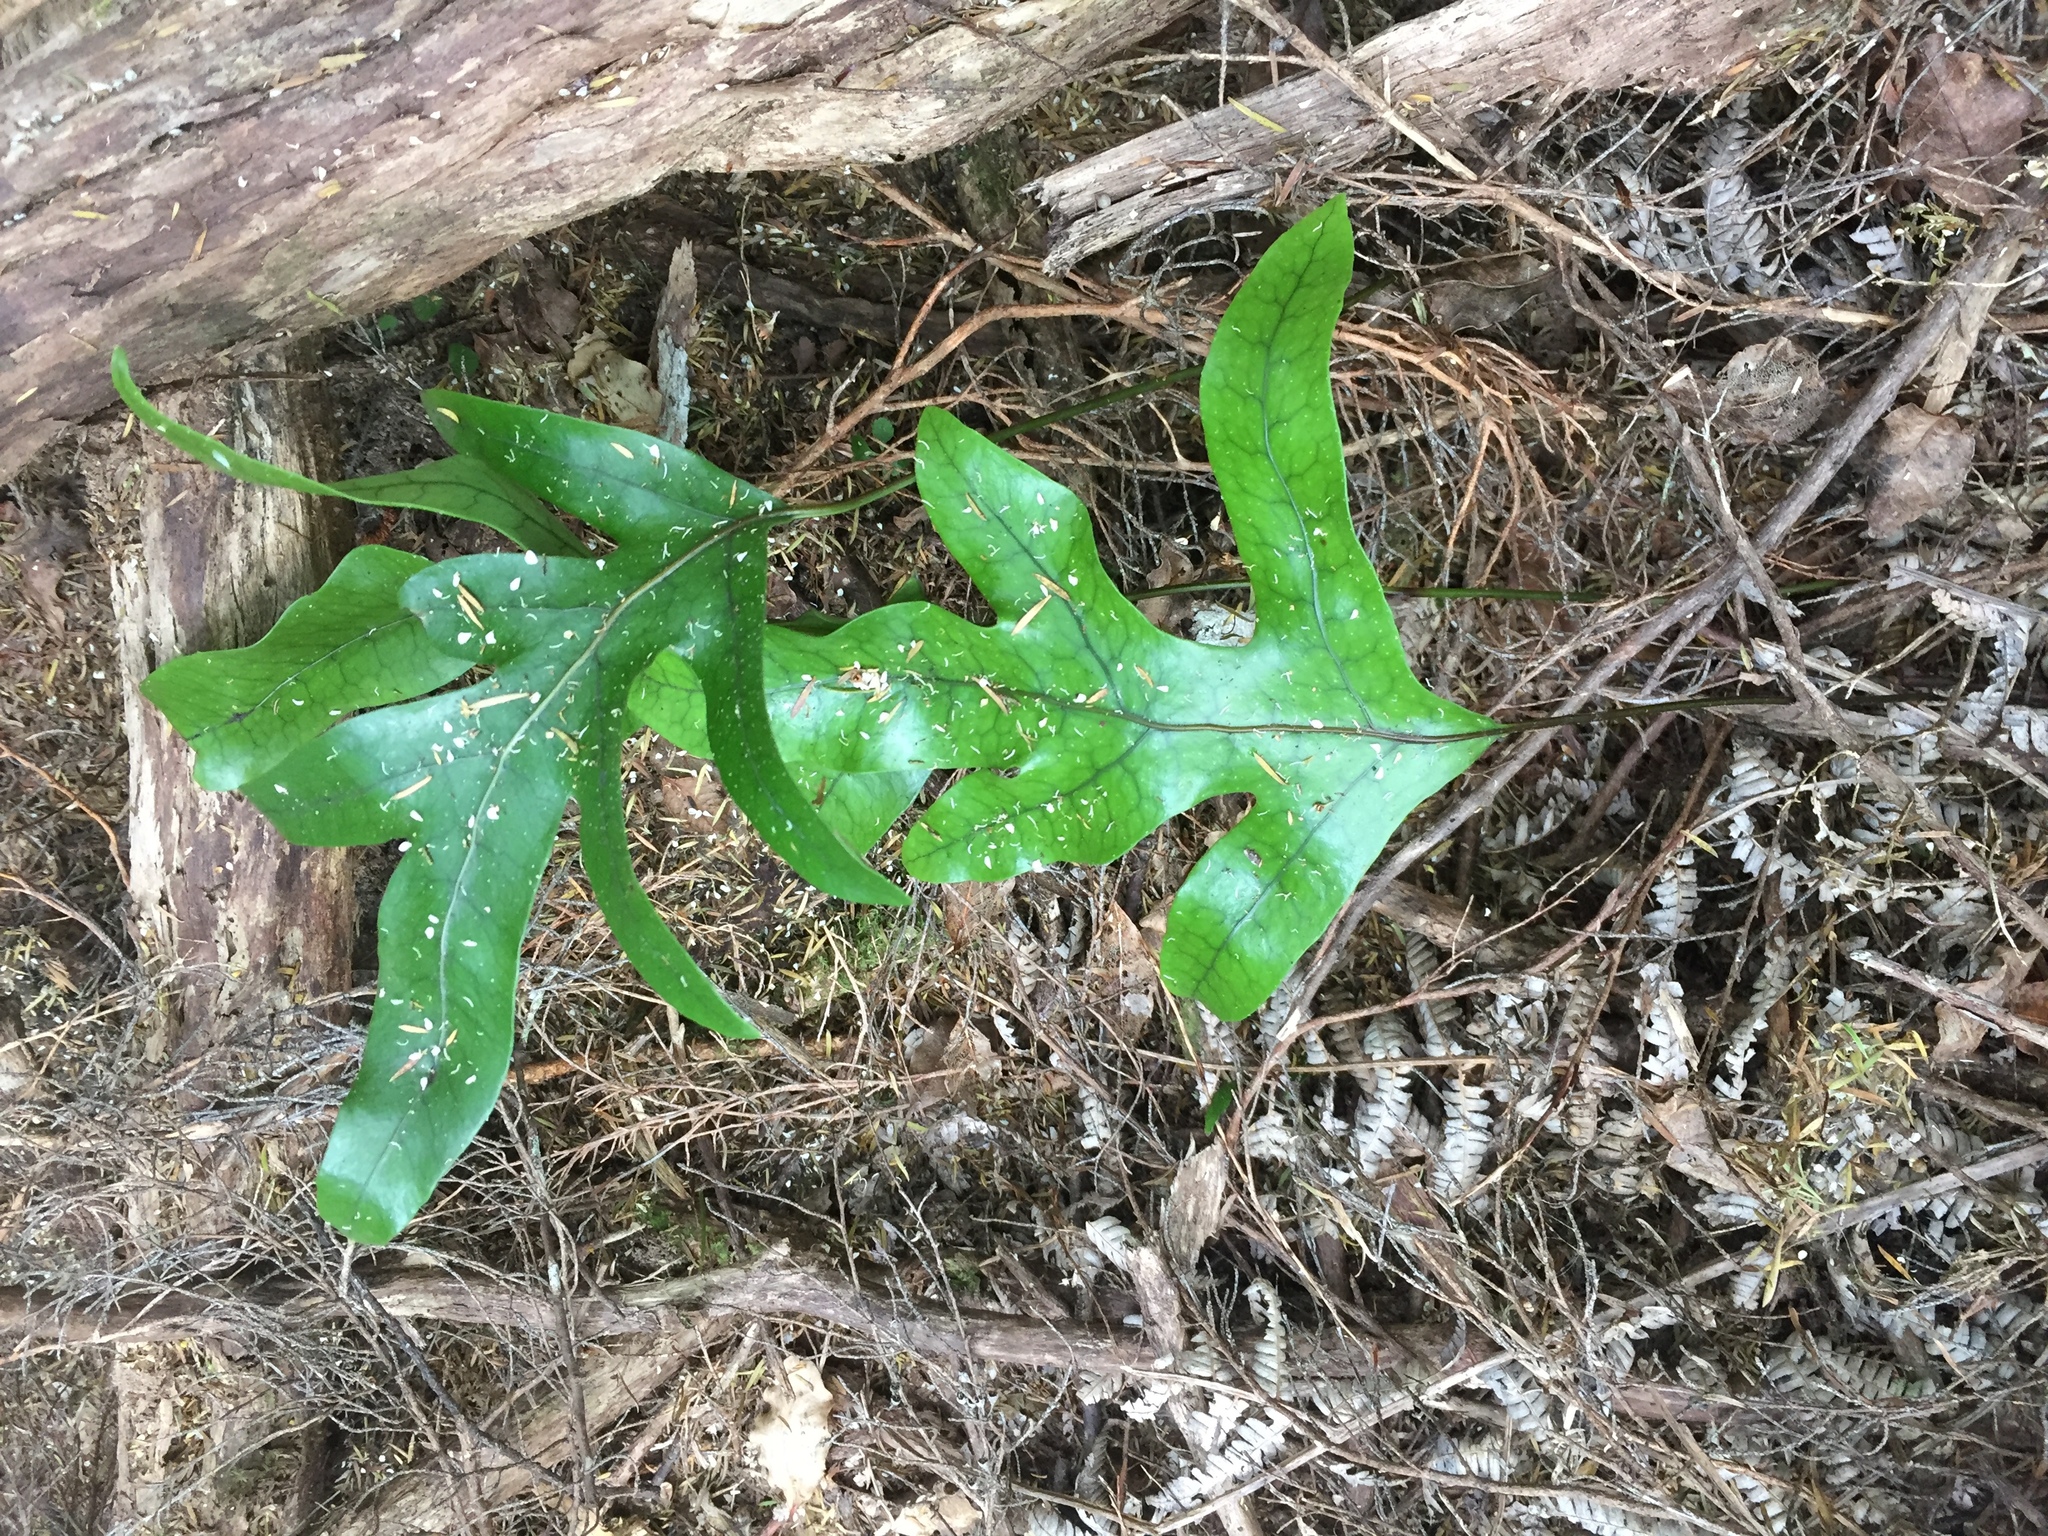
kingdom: Plantae
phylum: Tracheophyta
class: Polypodiopsida
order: Polypodiales
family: Polypodiaceae
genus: Lecanopteris
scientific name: Lecanopteris pustulata
